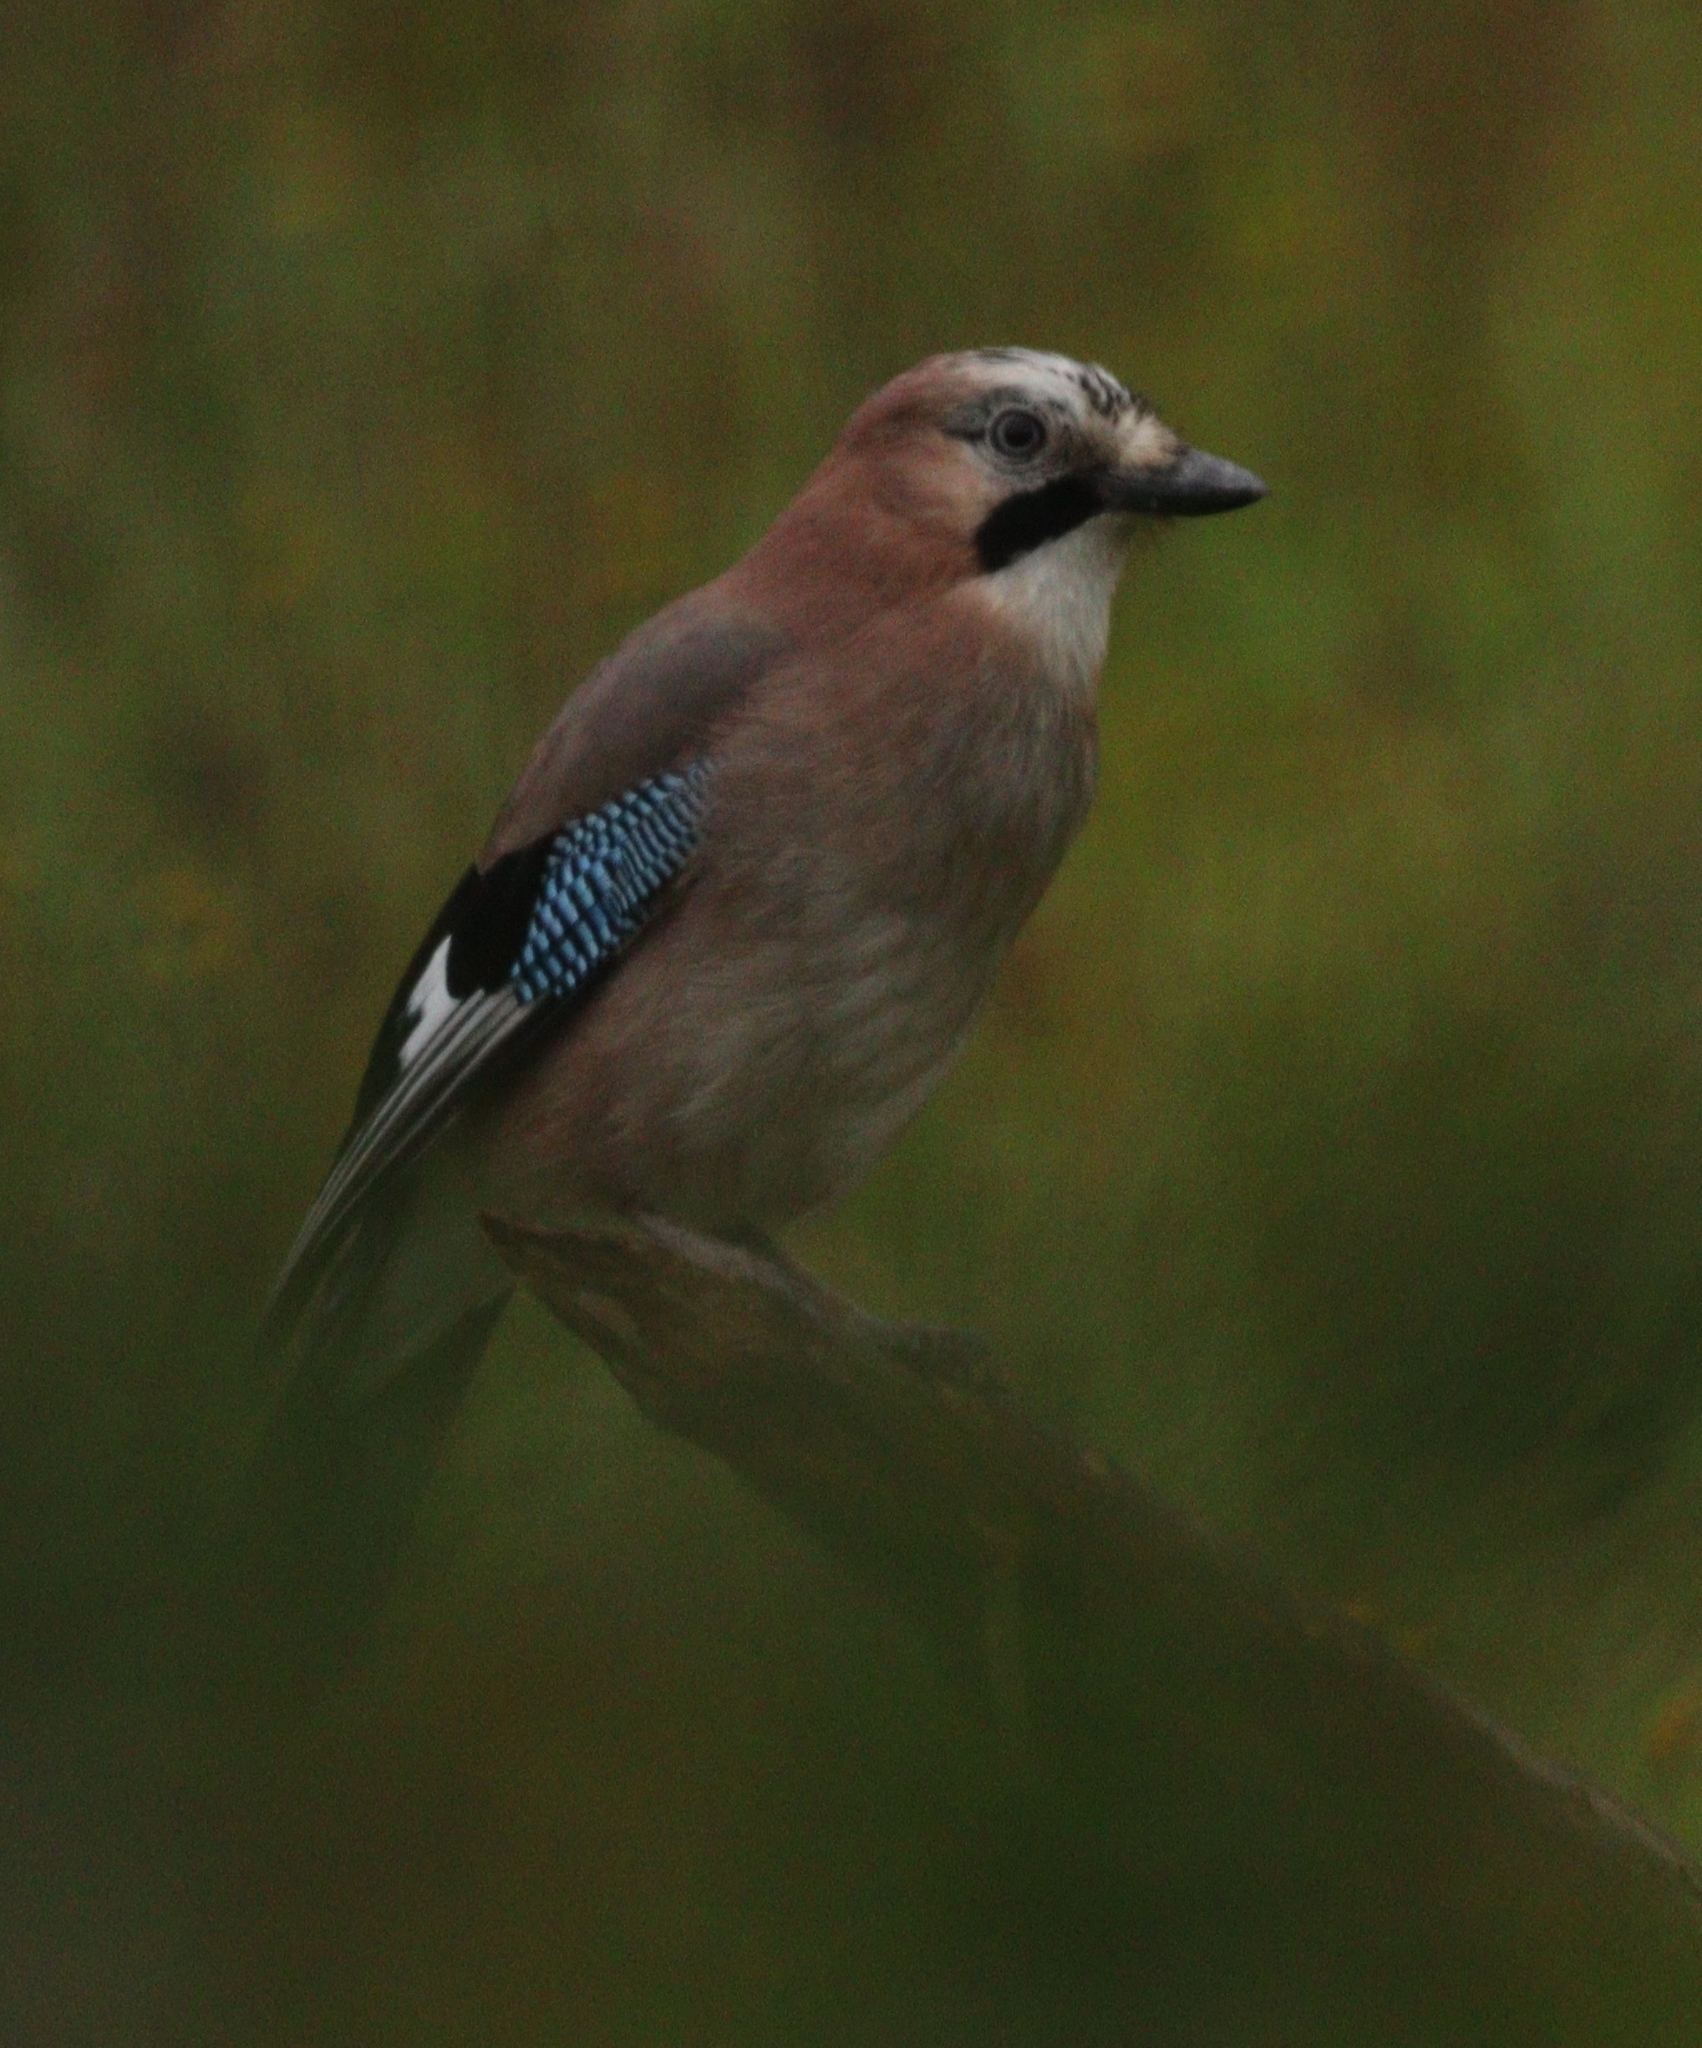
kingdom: Animalia
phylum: Chordata
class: Aves
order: Passeriformes
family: Corvidae
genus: Garrulus
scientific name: Garrulus glandarius
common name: Eurasian jay
